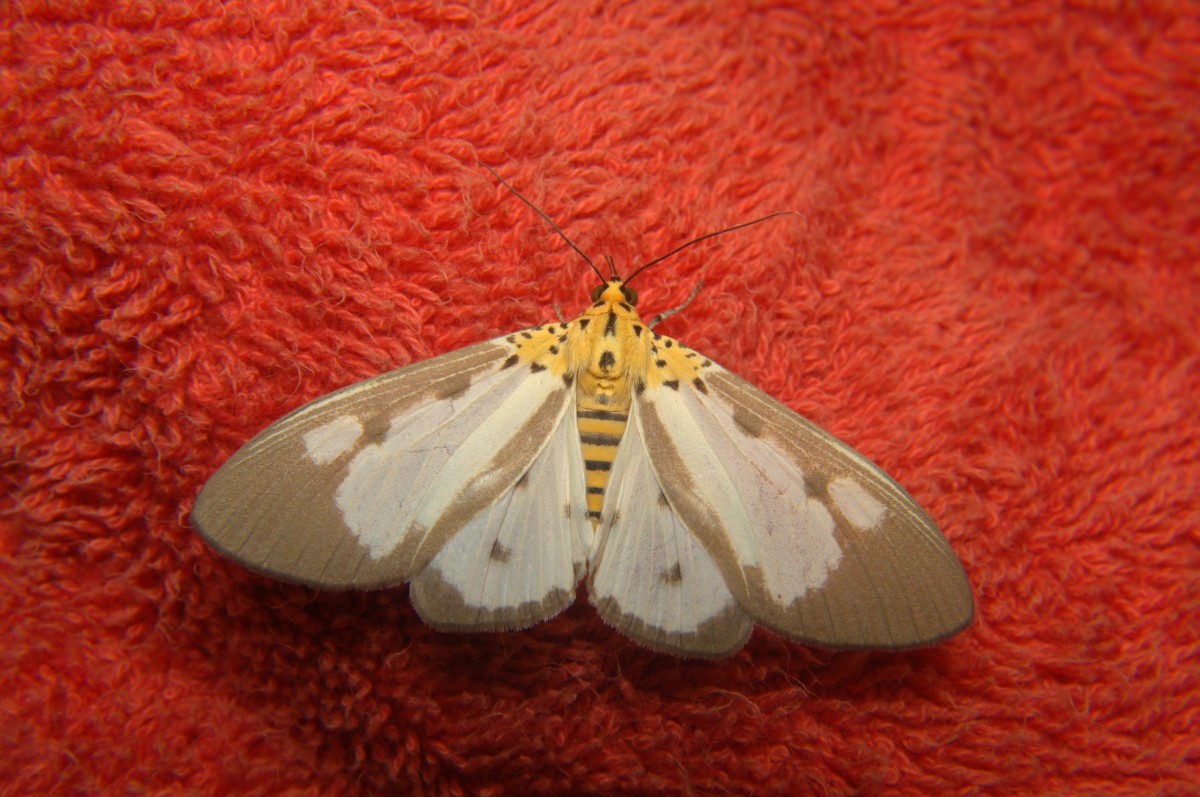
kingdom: Animalia
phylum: Arthropoda
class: Insecta
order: Lepidoptera
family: Erebidae
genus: Asota
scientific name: Asota plana
